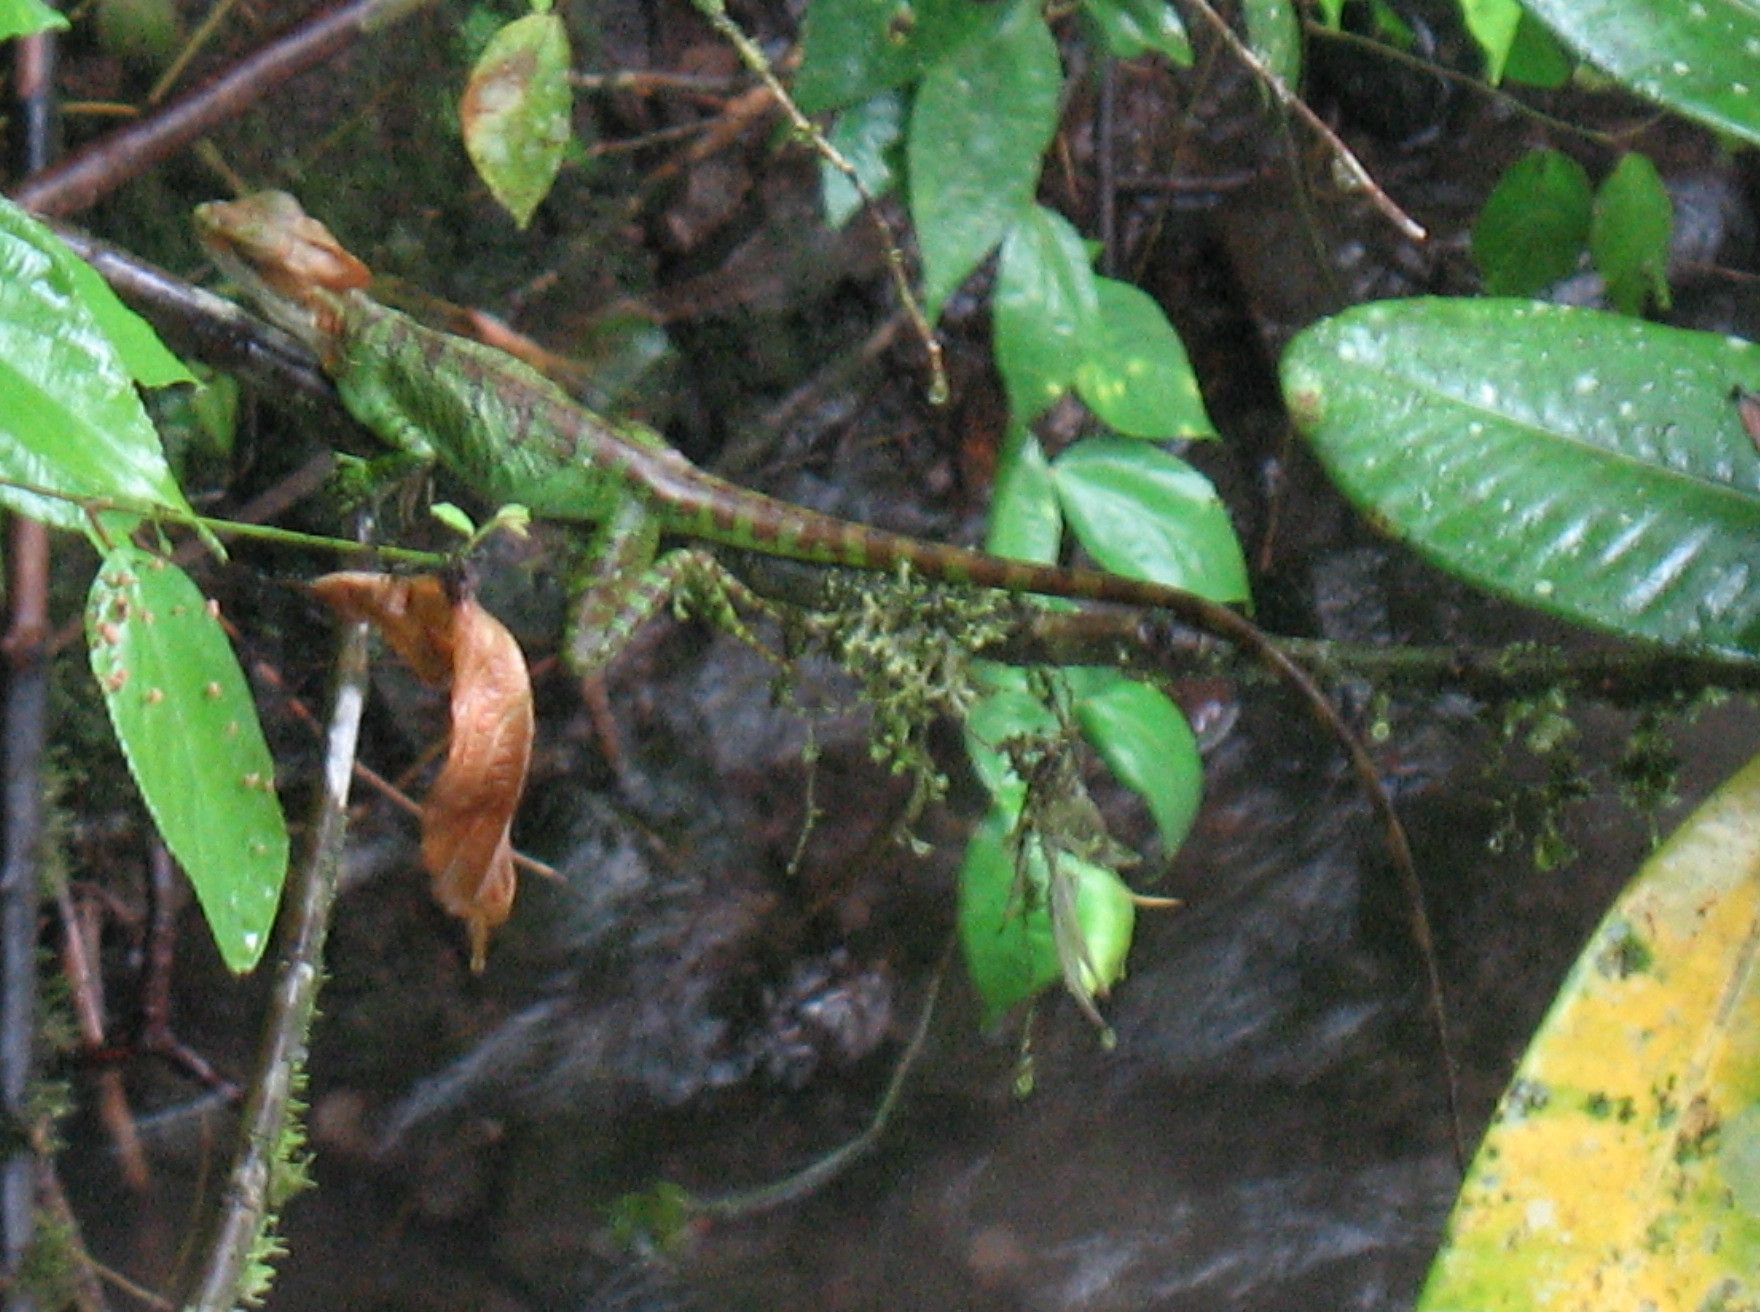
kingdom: Animalia
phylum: Chordata
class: Squamata
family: Corytophanidae
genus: Basiliscus
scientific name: Basiliscus galeritus
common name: Western basilisk
